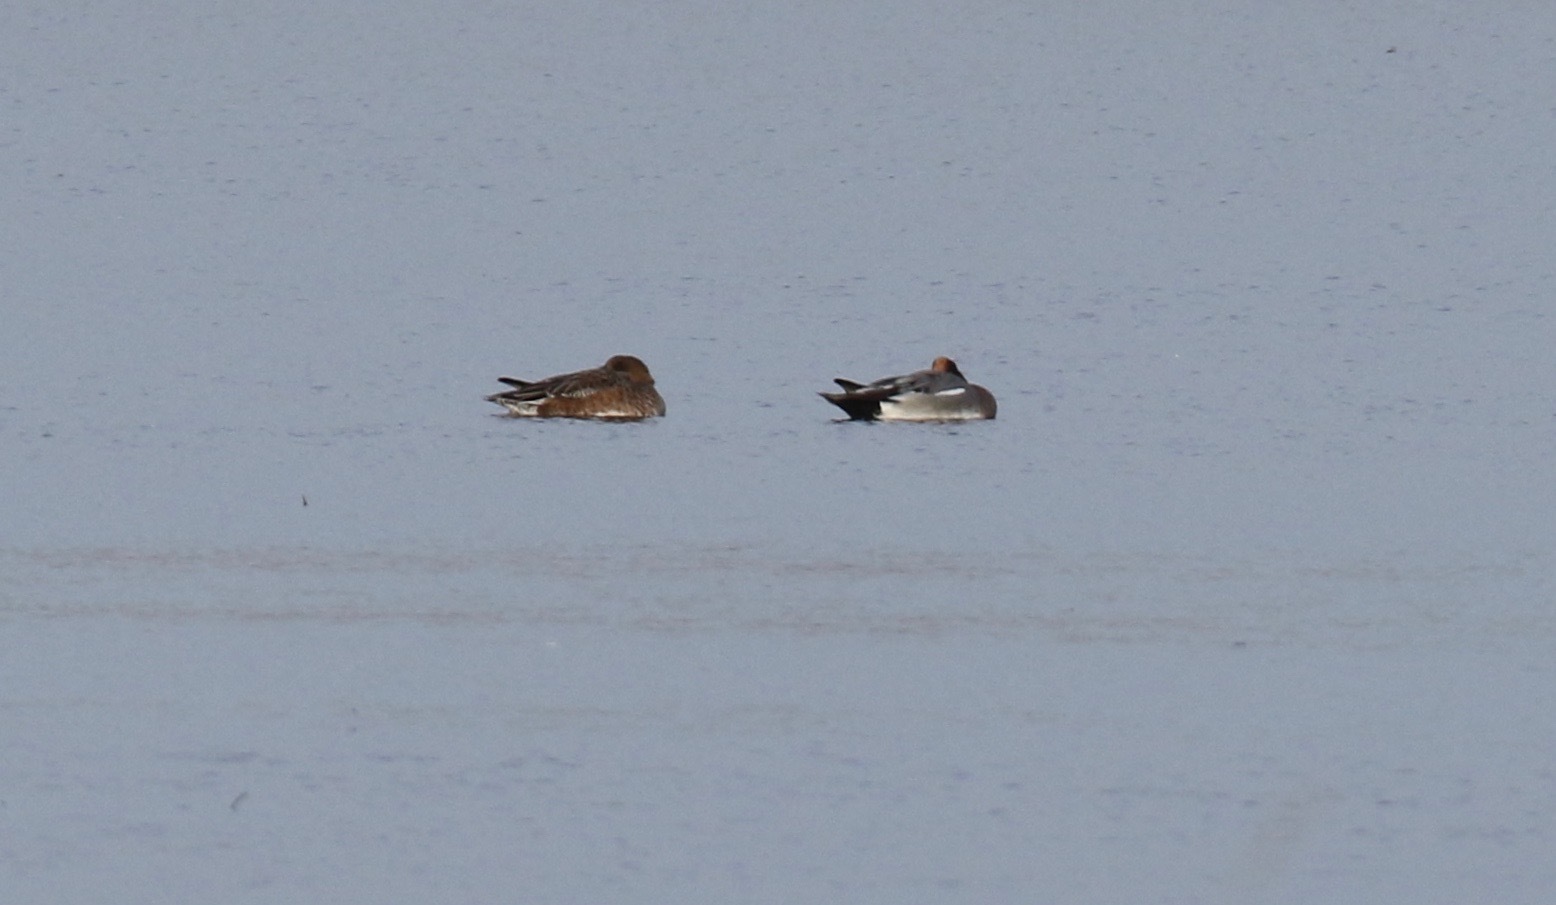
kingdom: Animalia
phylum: Chordata
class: Aves
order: Anseriformes
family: Anatidae
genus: Mareca
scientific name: Mareca penelope
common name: Eurasian wigeon
